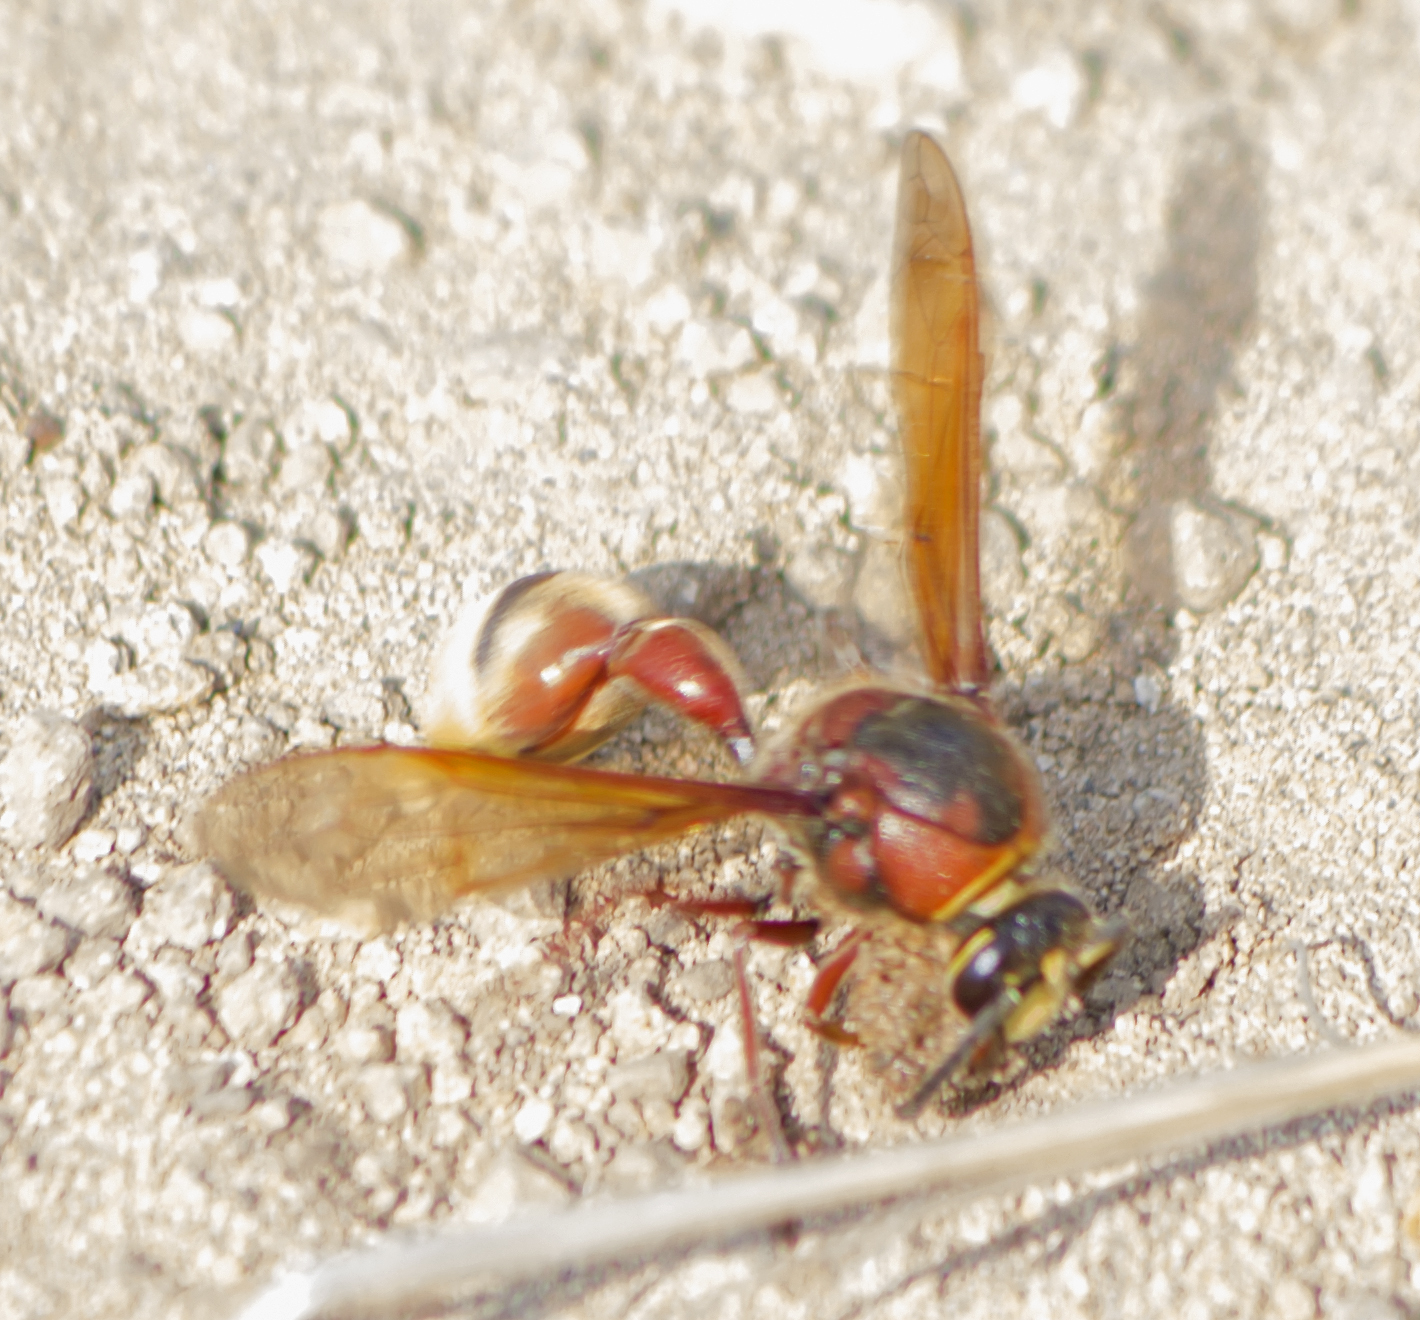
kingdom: Animalia
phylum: Arthropoda
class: Insecta
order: Hymenoptera
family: Eumenidae
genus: Delta
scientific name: Delta unguiculatum
